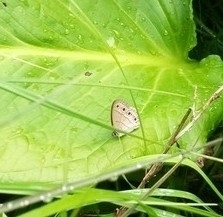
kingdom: Animalia
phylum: Arthropoda
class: Insecta
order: Lepidoptera
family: Nymphalidae
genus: Euptychia
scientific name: Euptychia cymela
